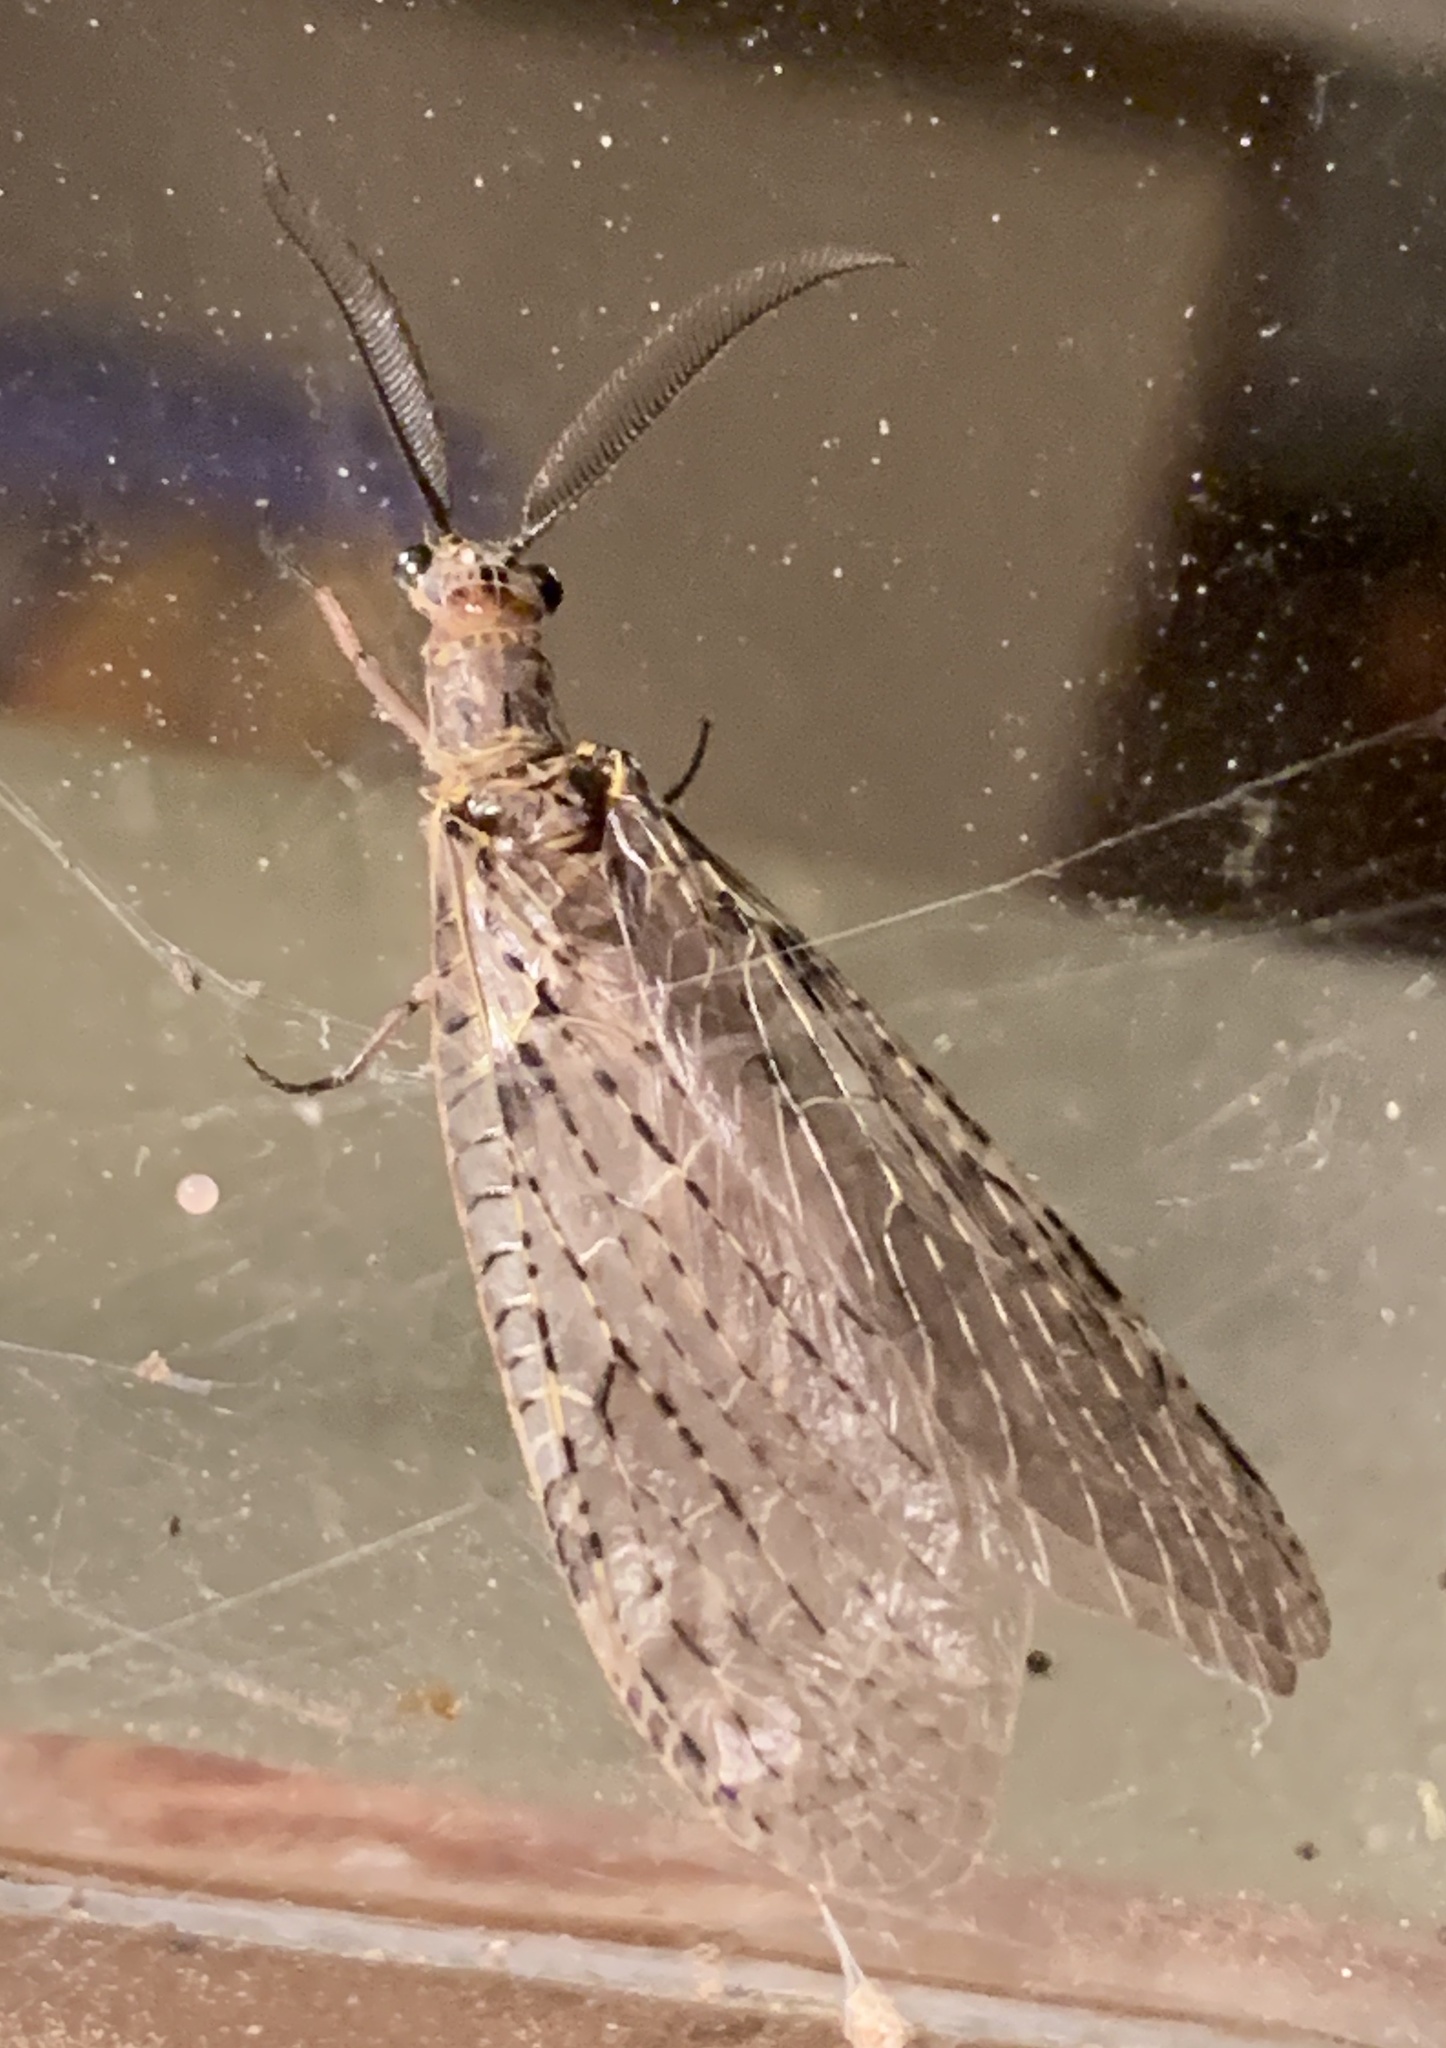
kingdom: Animalia
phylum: Arthropoda
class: Insecta
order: Megaloptera
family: Corydalidae
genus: Chauliodes
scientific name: Chauliodes rastricornis
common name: Spring fishfly
